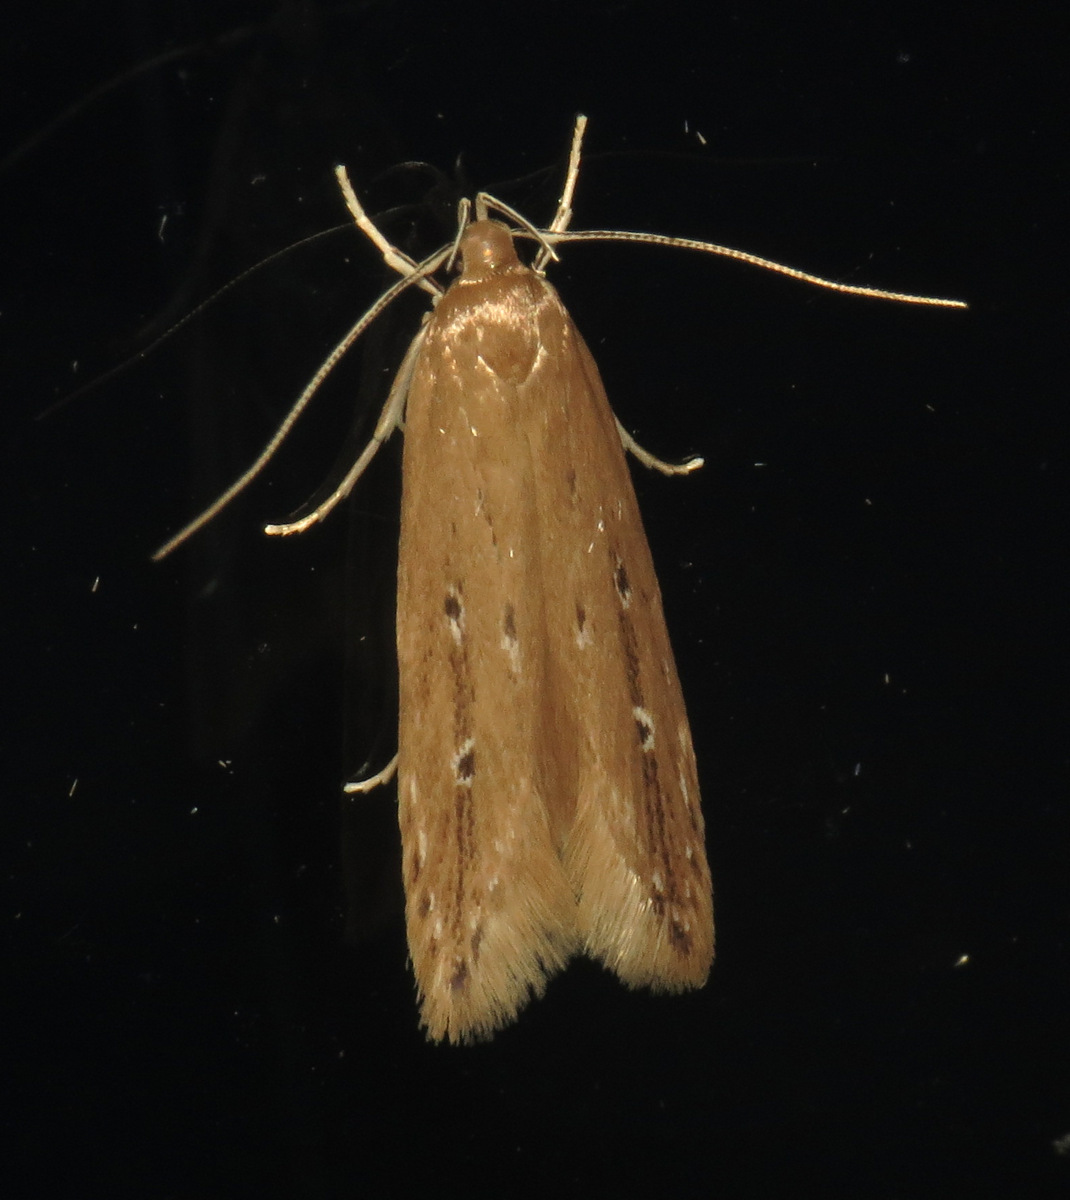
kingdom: Animalia
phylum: Arthropoda
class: Insecta
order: Lepidoptera
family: Cosmopterigidae
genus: Limnaecia
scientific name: Limnaecia phragmitella
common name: Bulrush cosmet
